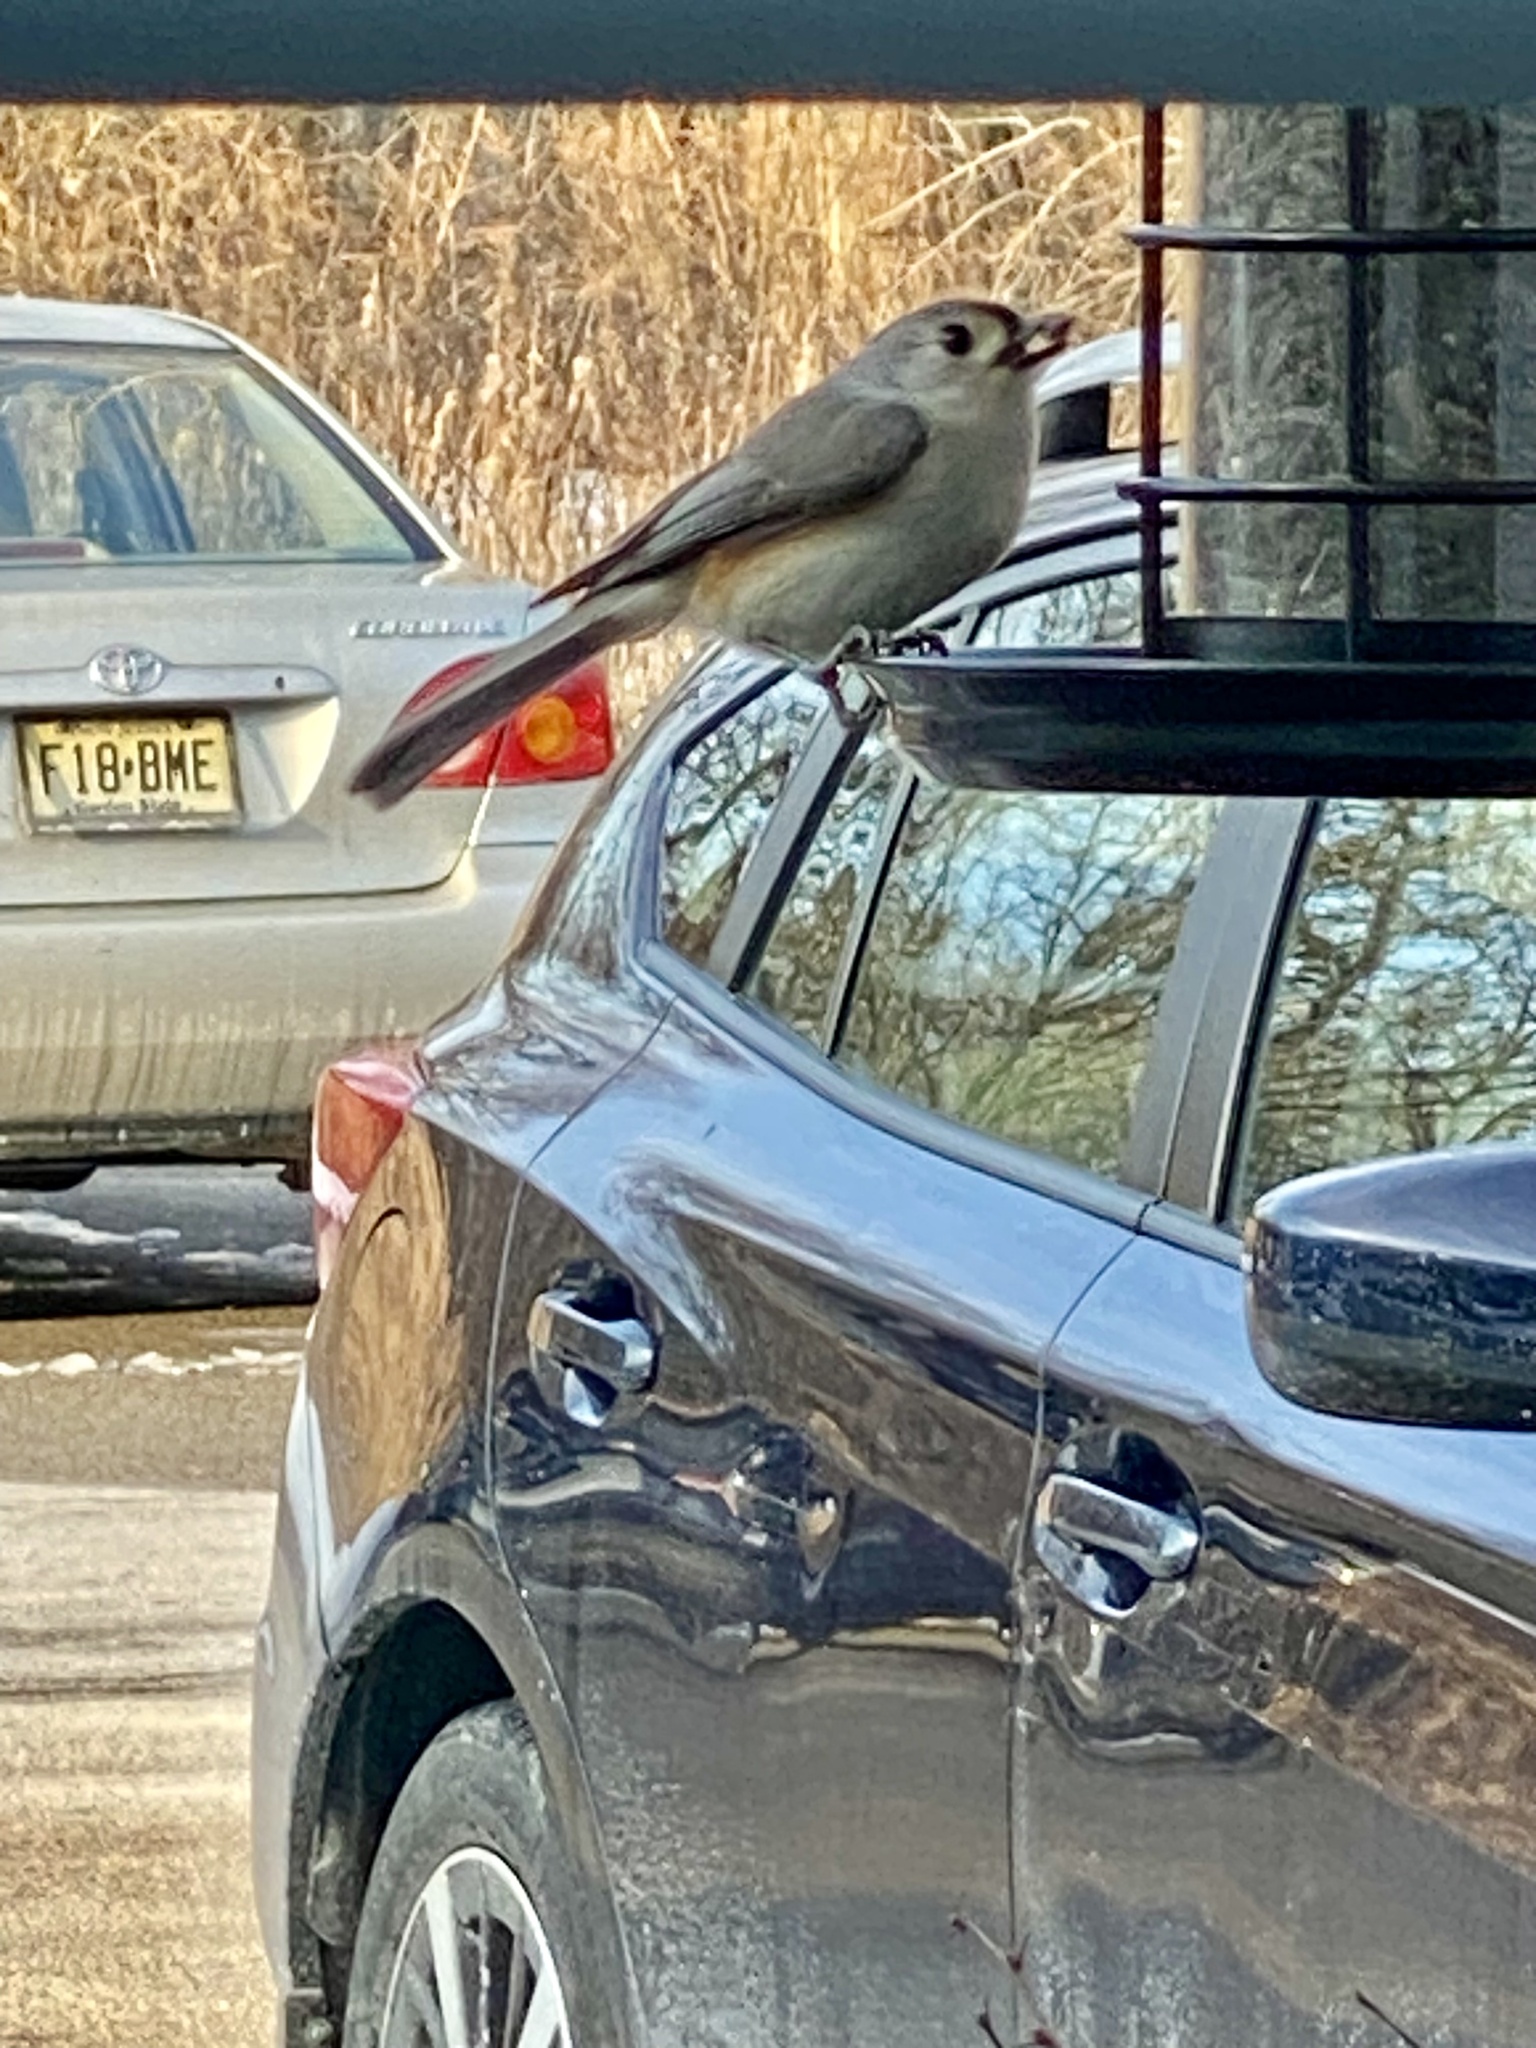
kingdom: Animalia
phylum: Chordata
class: Aves
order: Passeriformes
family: Paridae
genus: Baeolophus
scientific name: Baeolophus bicolor
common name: Tufted titmouse
